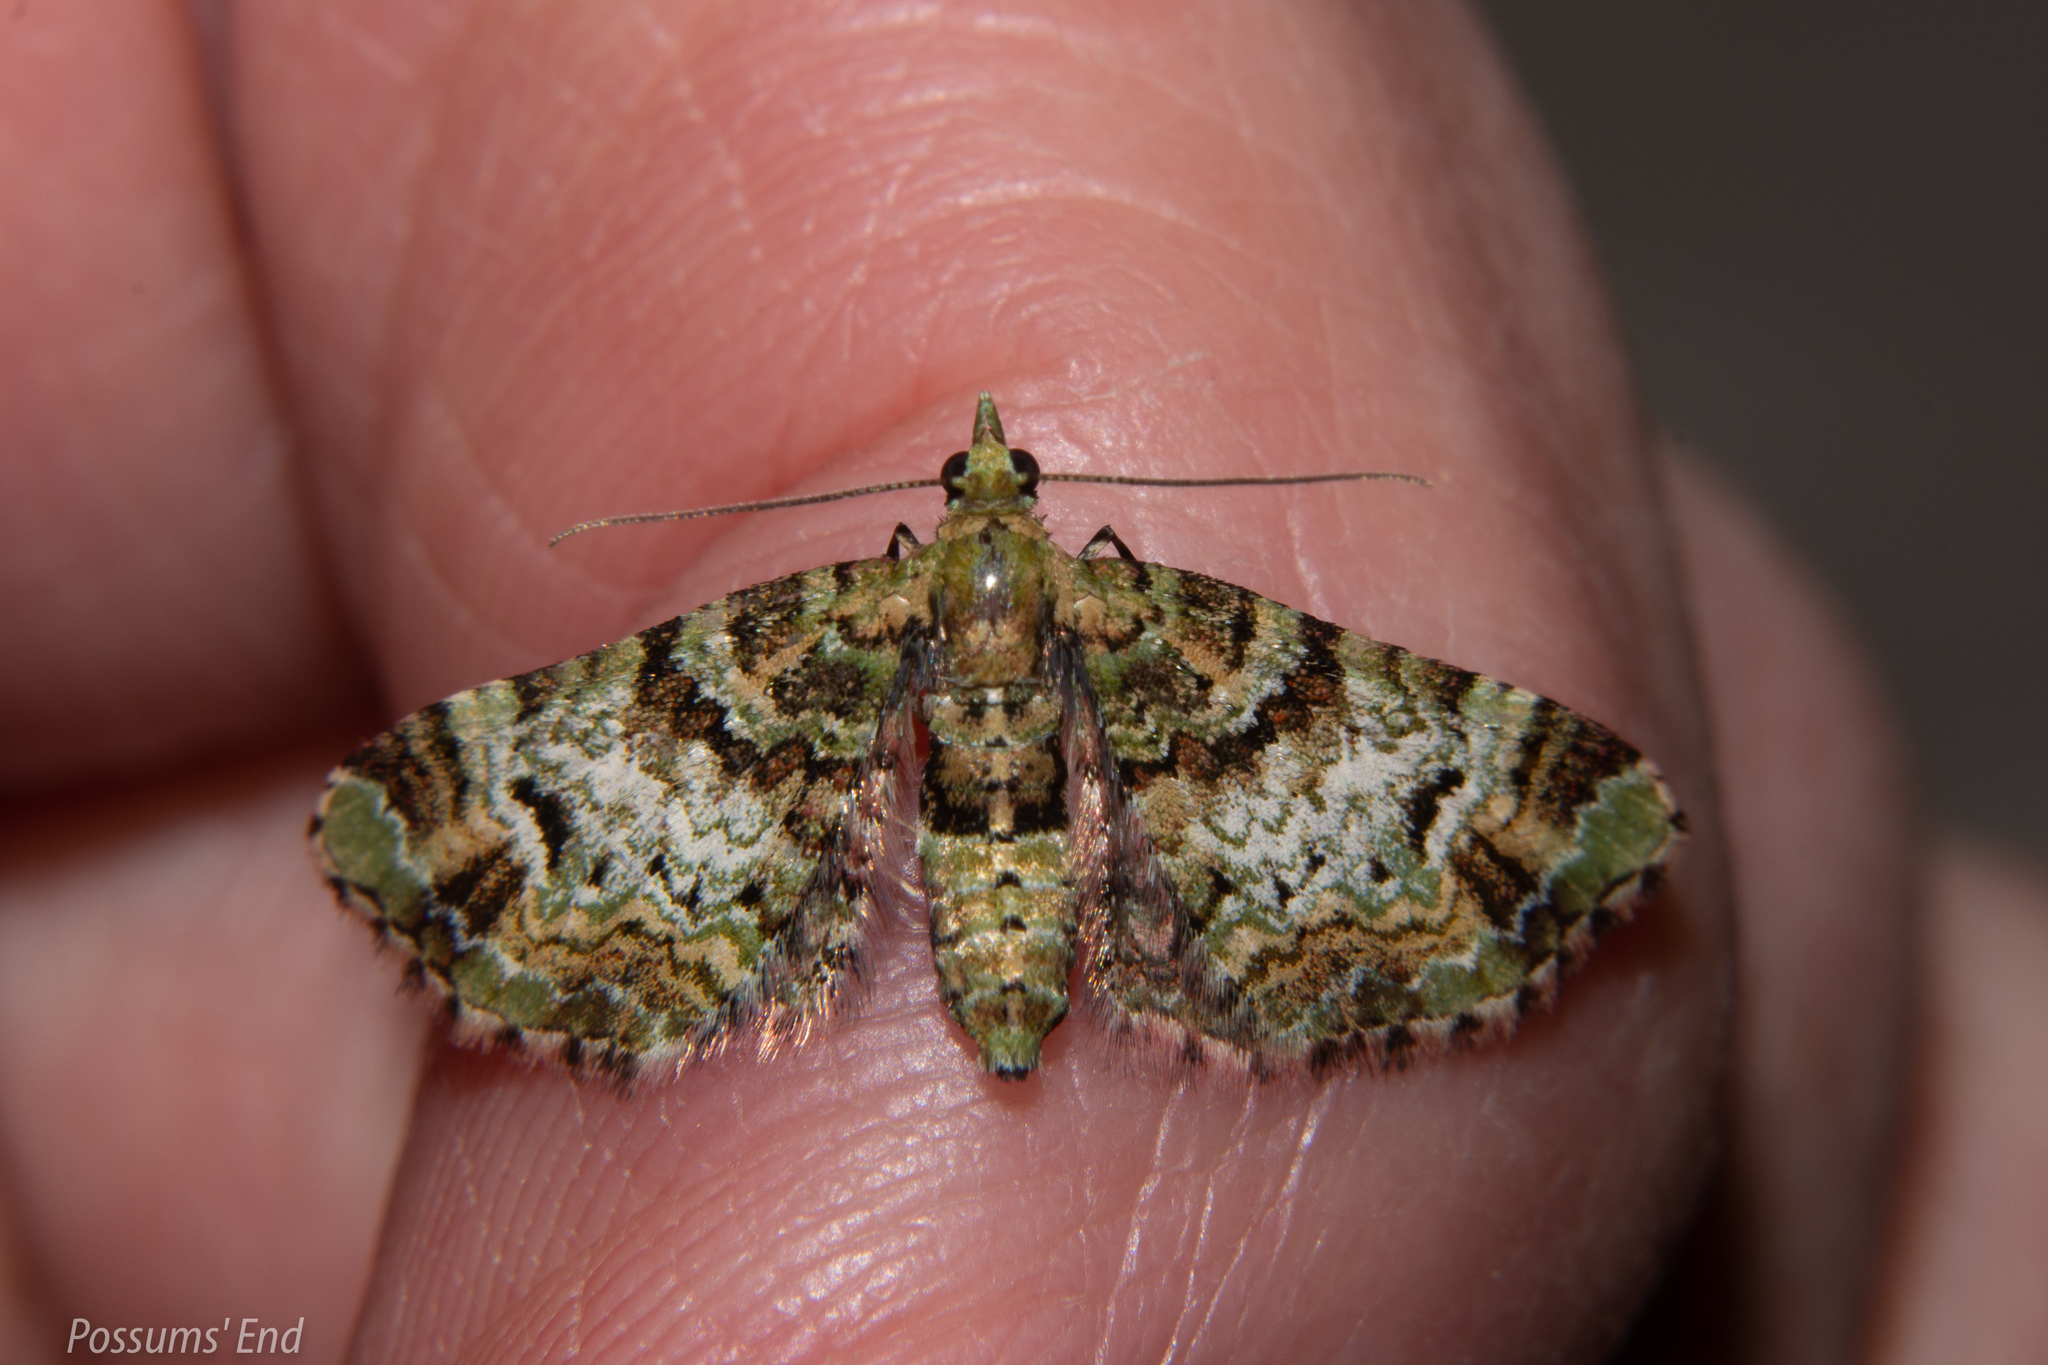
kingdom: Animalia
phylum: Arthropoda
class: Insecta
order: Lepidoptera
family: Geometridae
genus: Pasiphila
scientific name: Pasiphila bilineolata
